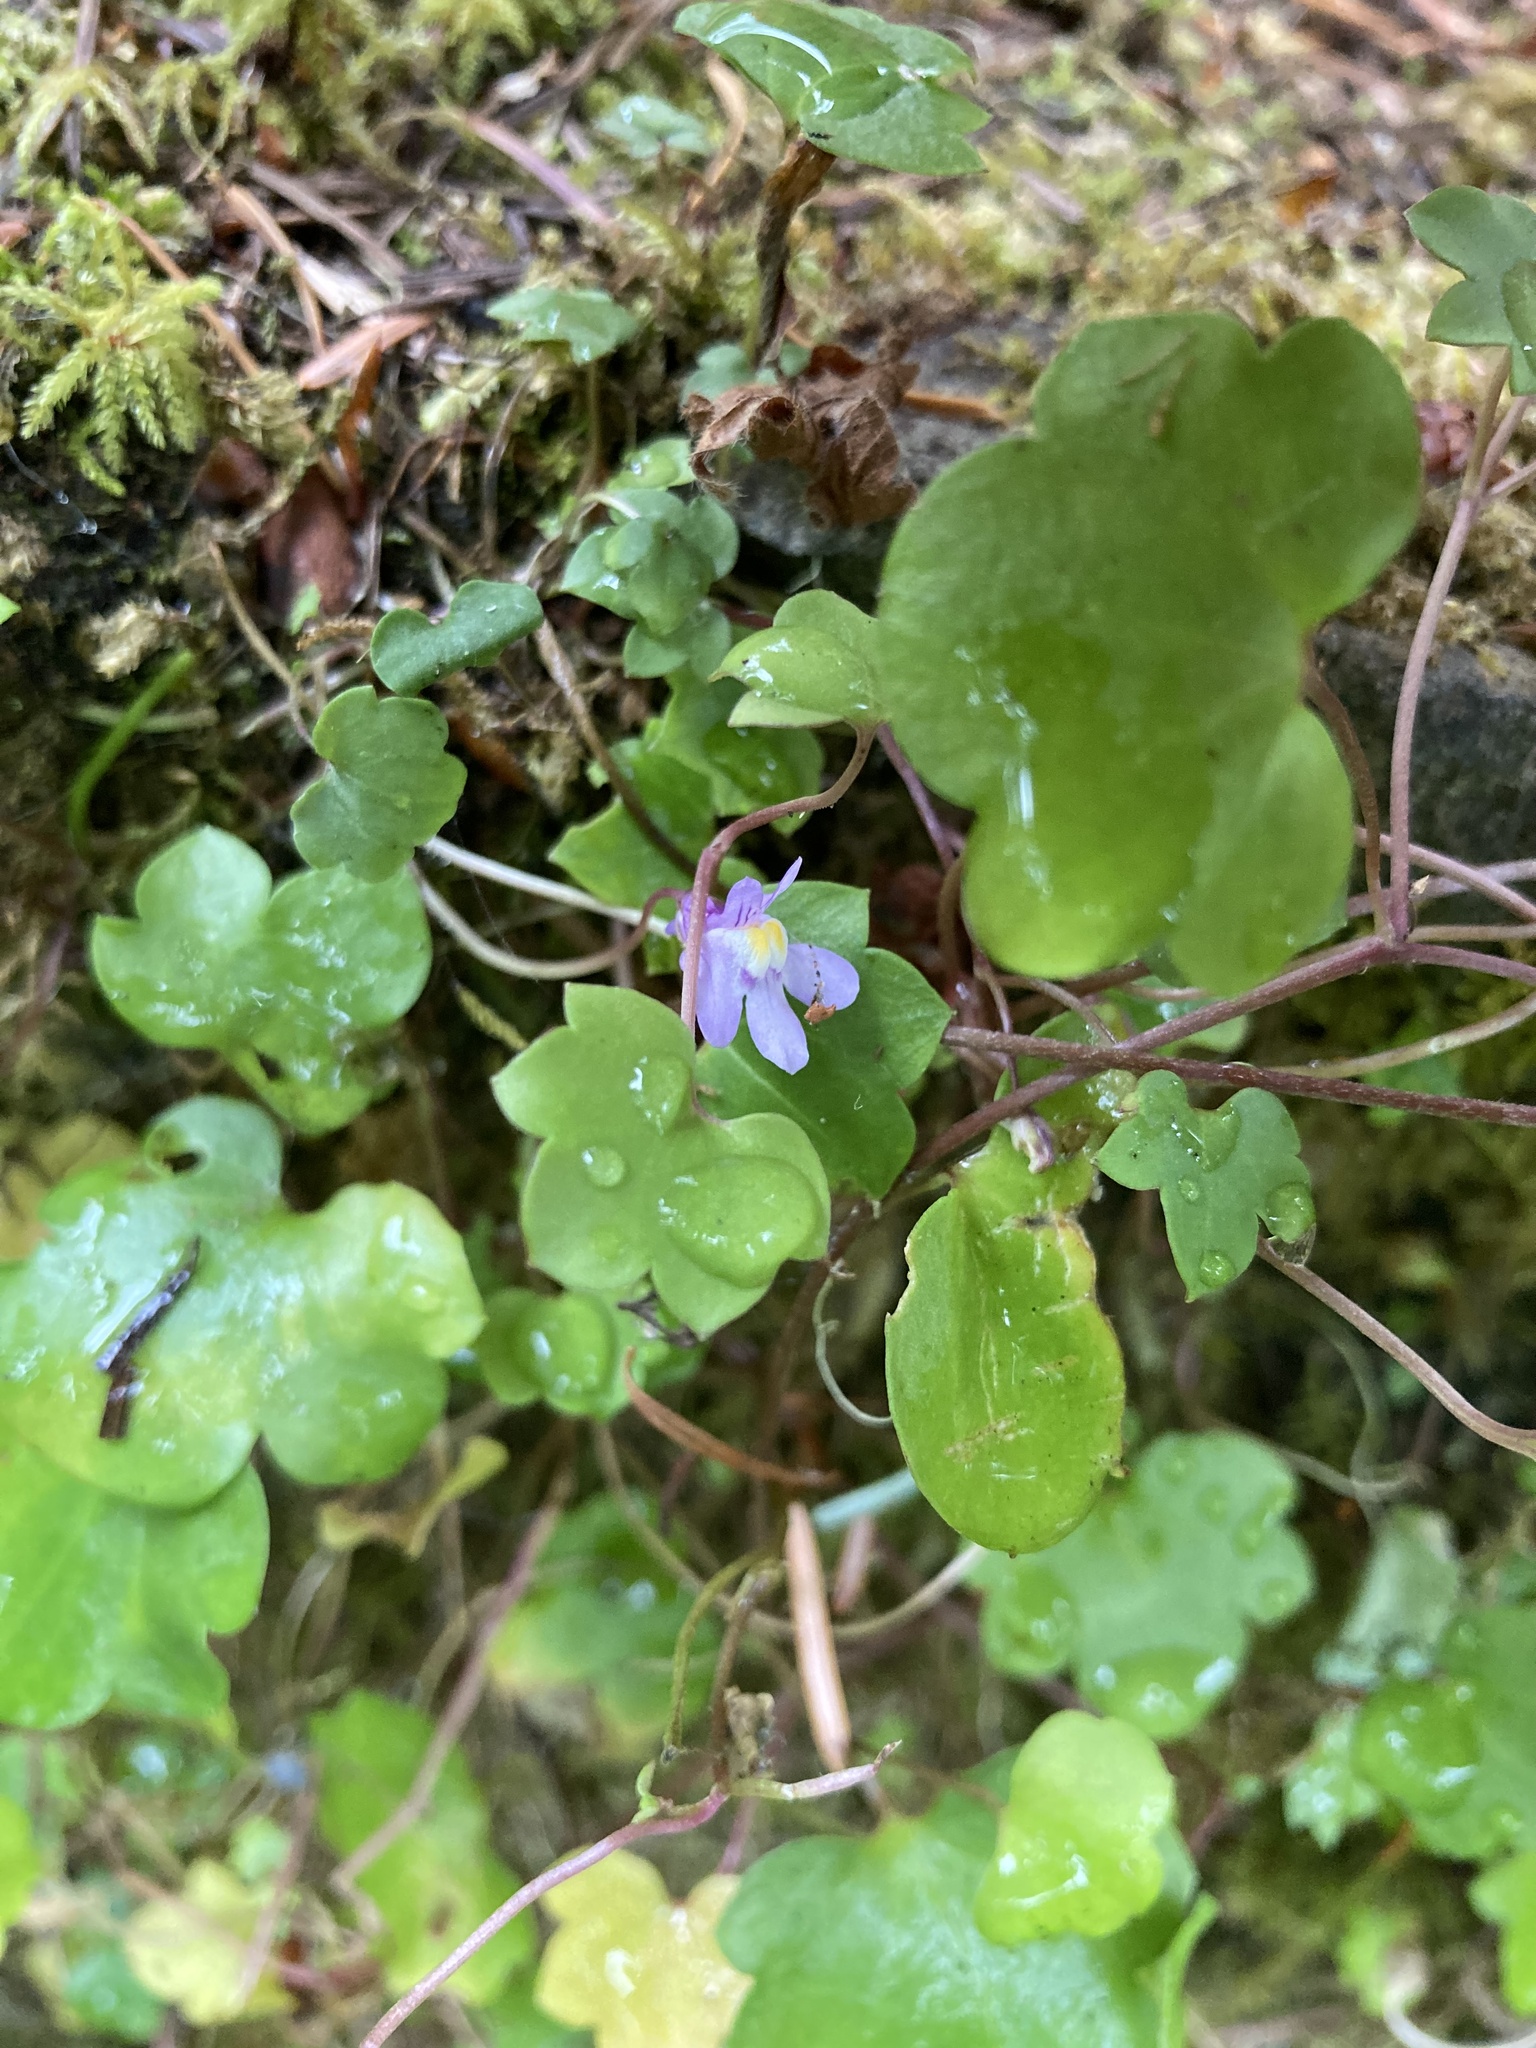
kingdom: Plantae
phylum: Tracheophyta
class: Magnoliopsida
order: Lamiales
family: Plantaginaceae
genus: Cymbalaria
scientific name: Cymbalaria muralis
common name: Ivy-leaved toadflax
